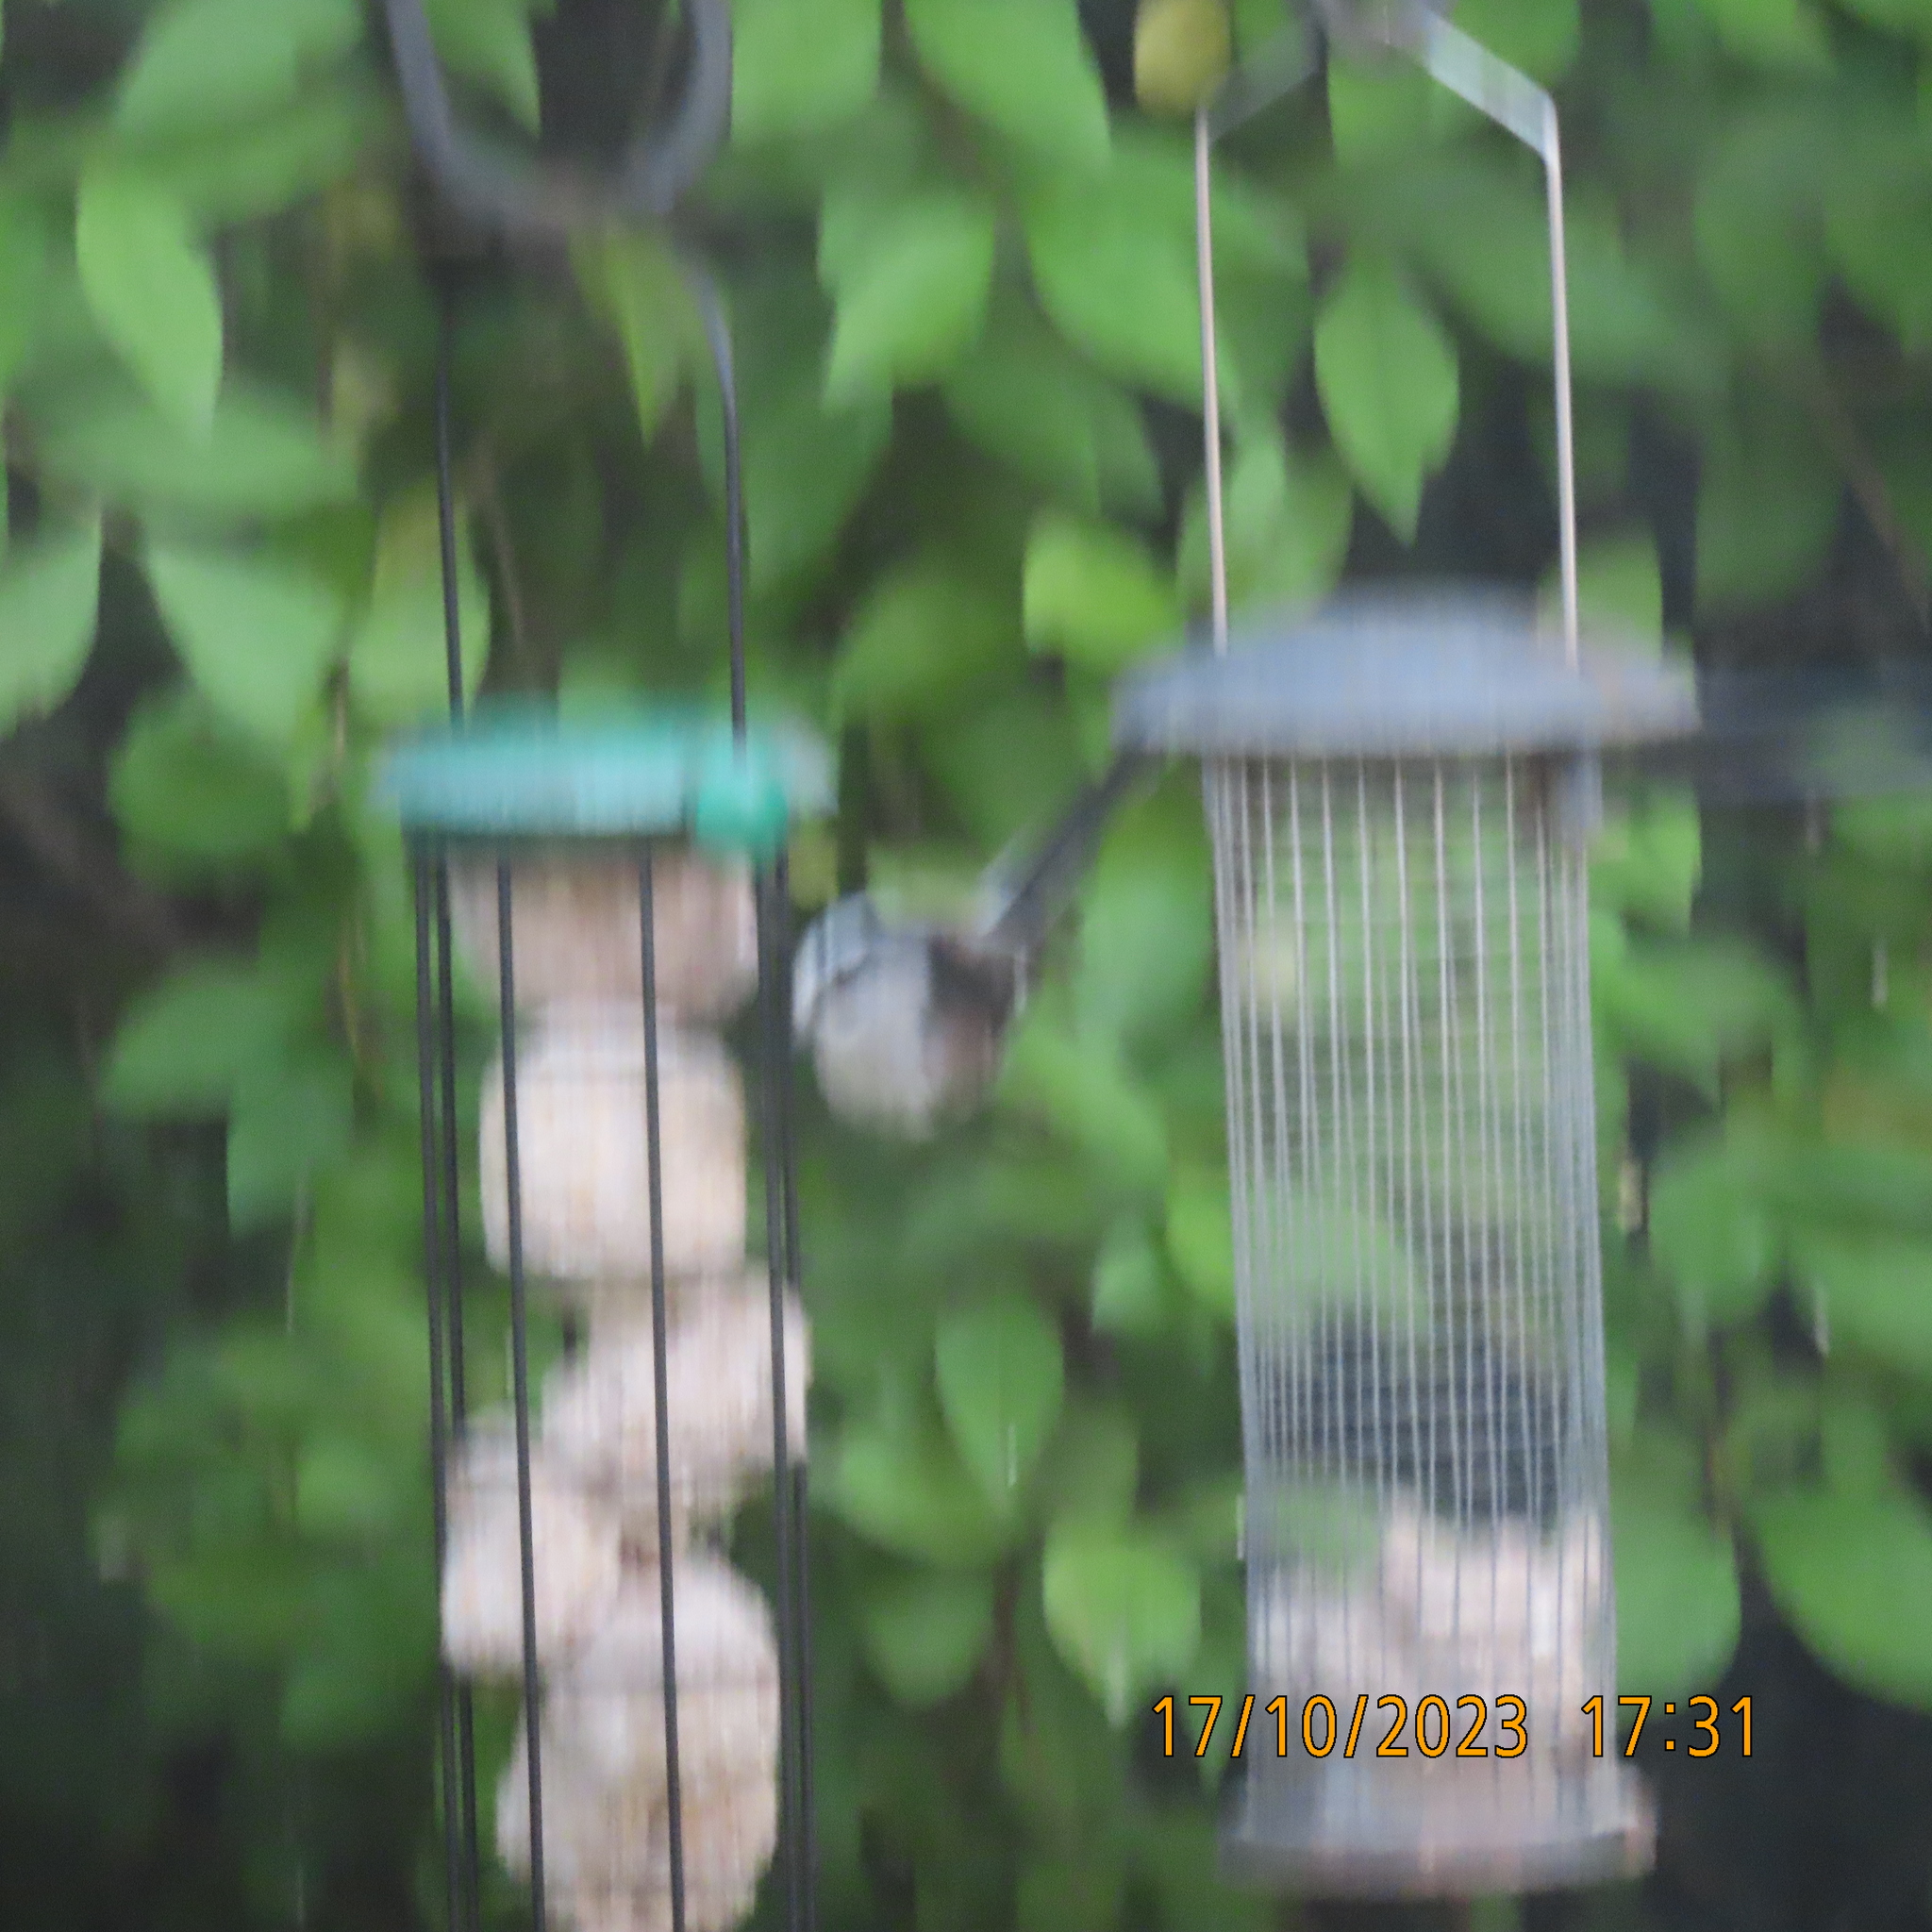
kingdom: Animalia
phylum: Chordata
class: Aves
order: Passeriformes
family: Aegithalidae
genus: Aegithalos
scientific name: Aegithalos caudatus
